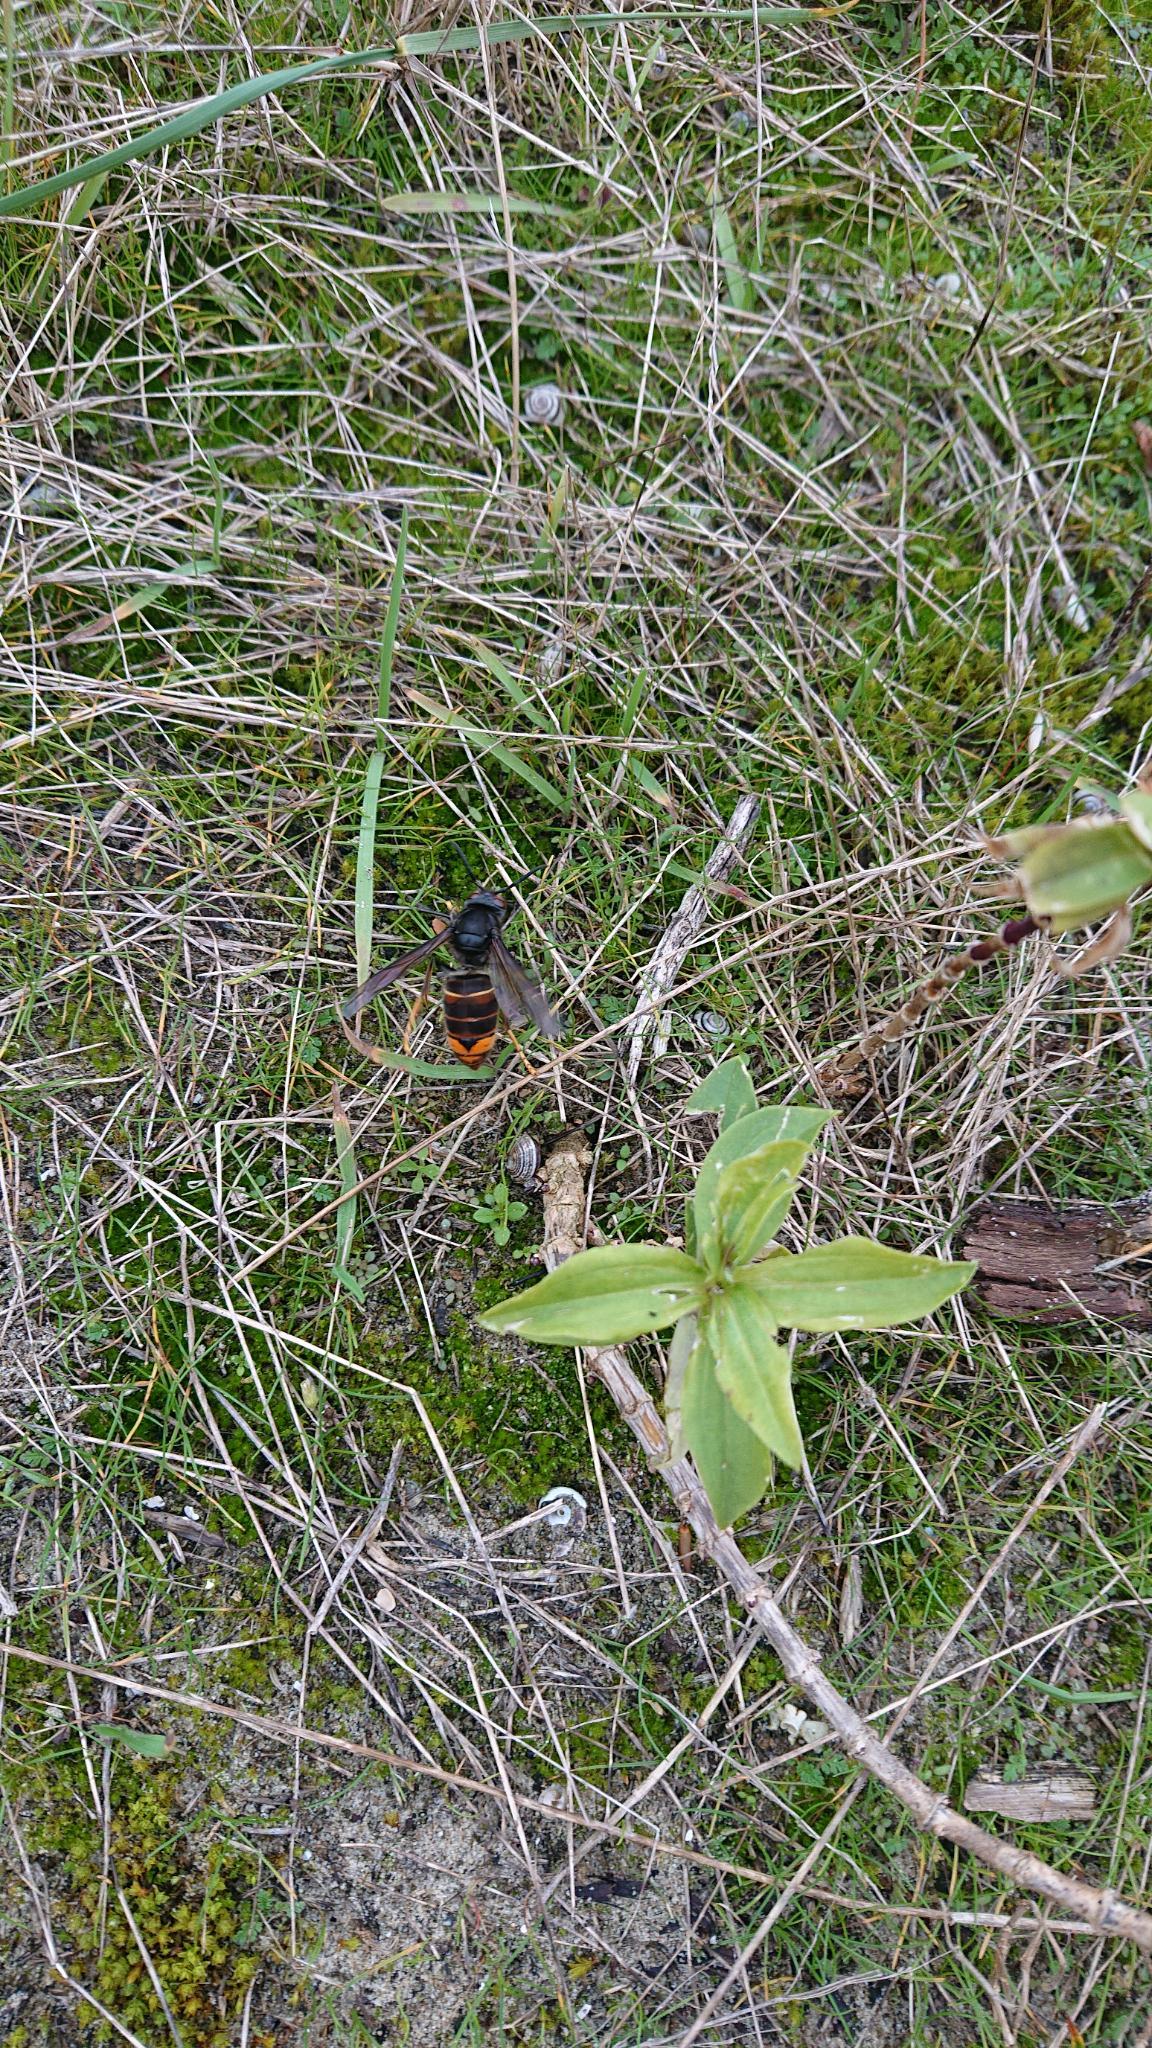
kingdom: Animalia
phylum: Arthropoda
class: Insecta
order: Hymenoptera
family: Vespidae
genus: Vespa
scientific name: Vespa velutina
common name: Asian hornet
